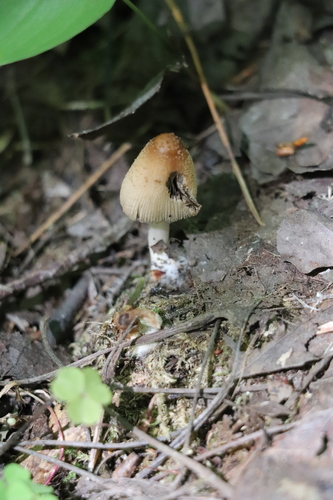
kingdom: Fungi
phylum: Basidiomycota
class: Agaricomycetes
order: Agaricales
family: Psathyrellaceae
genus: Coprinopsis
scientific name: Coprinopsis atramentaria
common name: Common ink-cap
